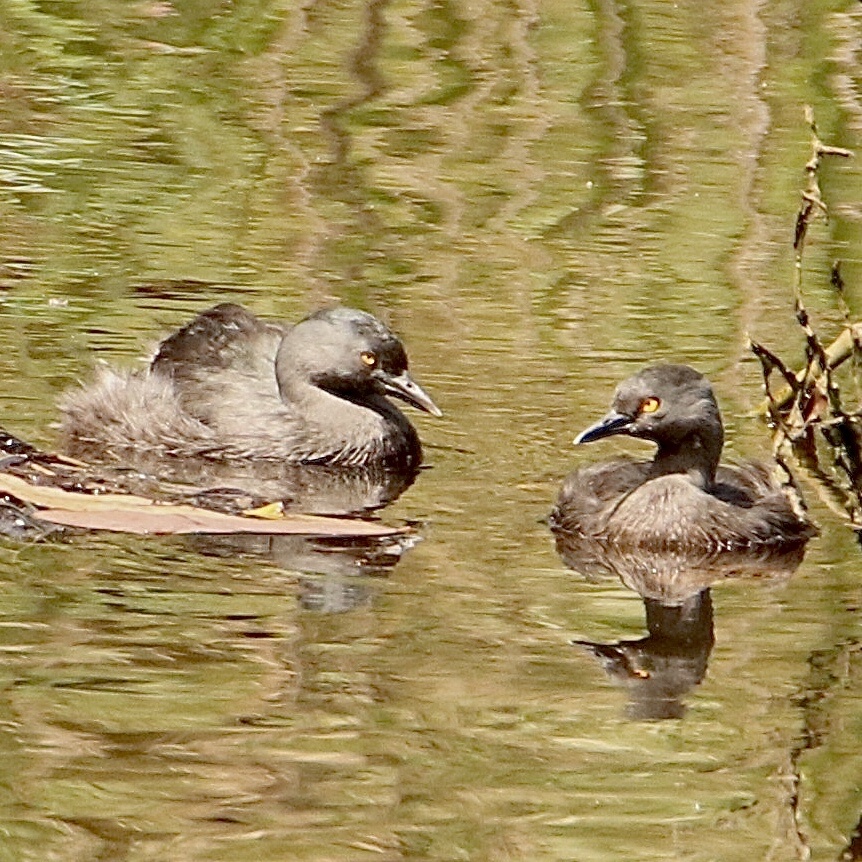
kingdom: Animalia
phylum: Chordata
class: Aves
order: Podicipediformes
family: Podicipedidae
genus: Tachybaptus
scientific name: Tachybaptus dominicus
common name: Least grebe
